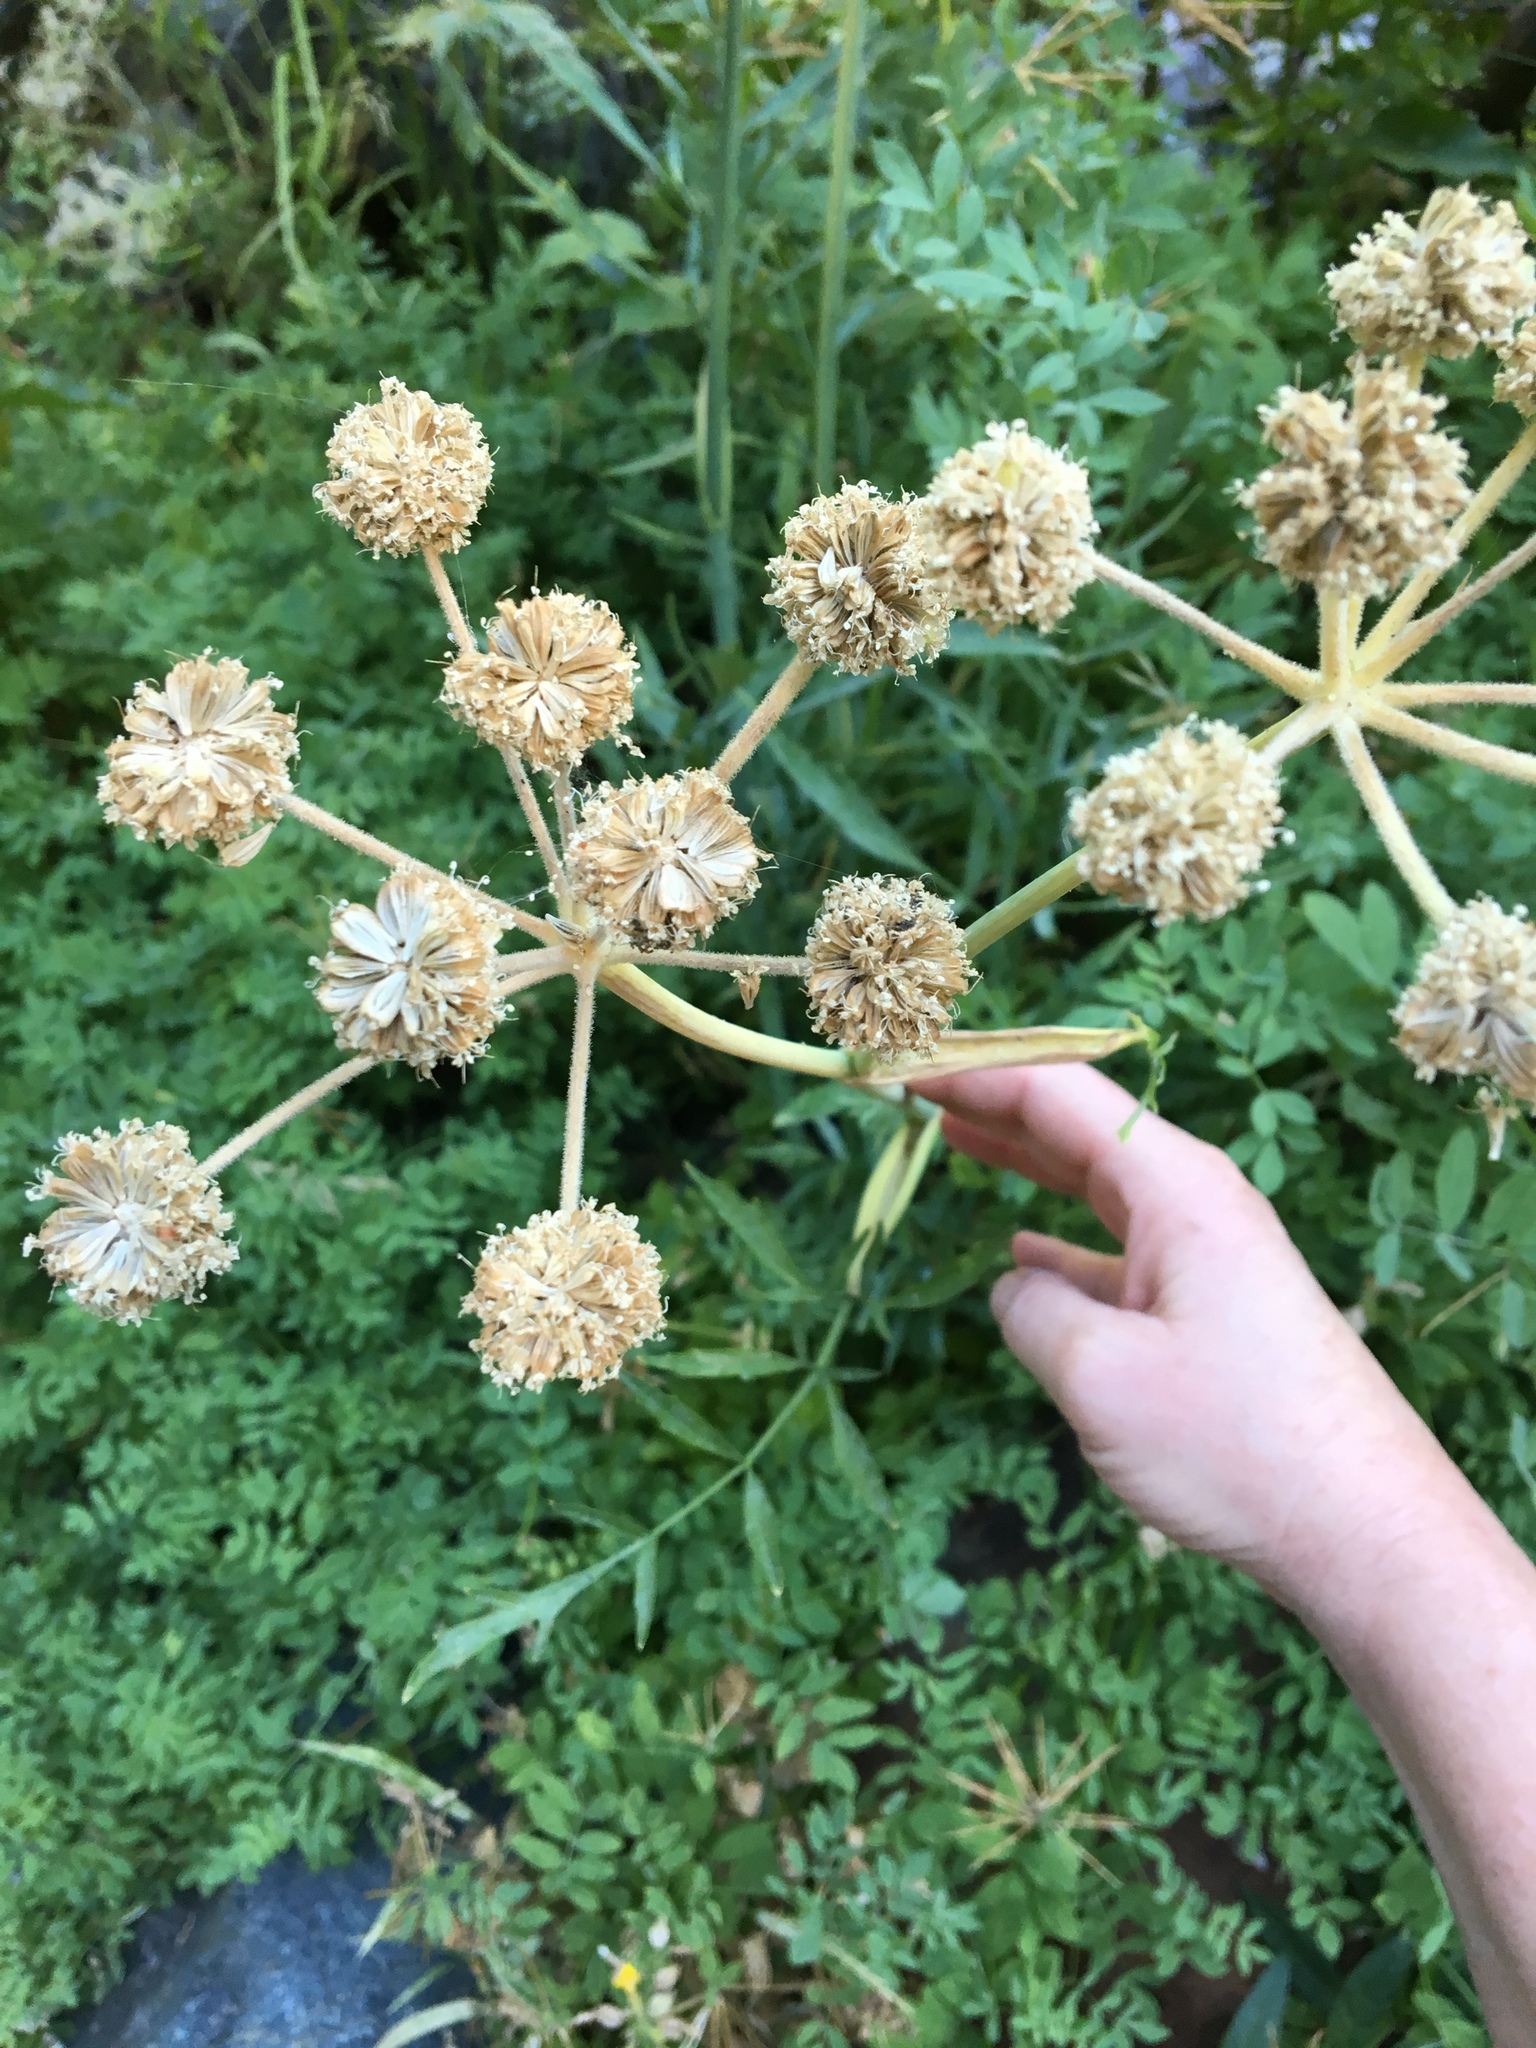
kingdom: Plantae
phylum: Tracheophyta
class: Magnoliopsida
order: Apiales
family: Apiaceae
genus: Angelica
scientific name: Angelica capitellata
